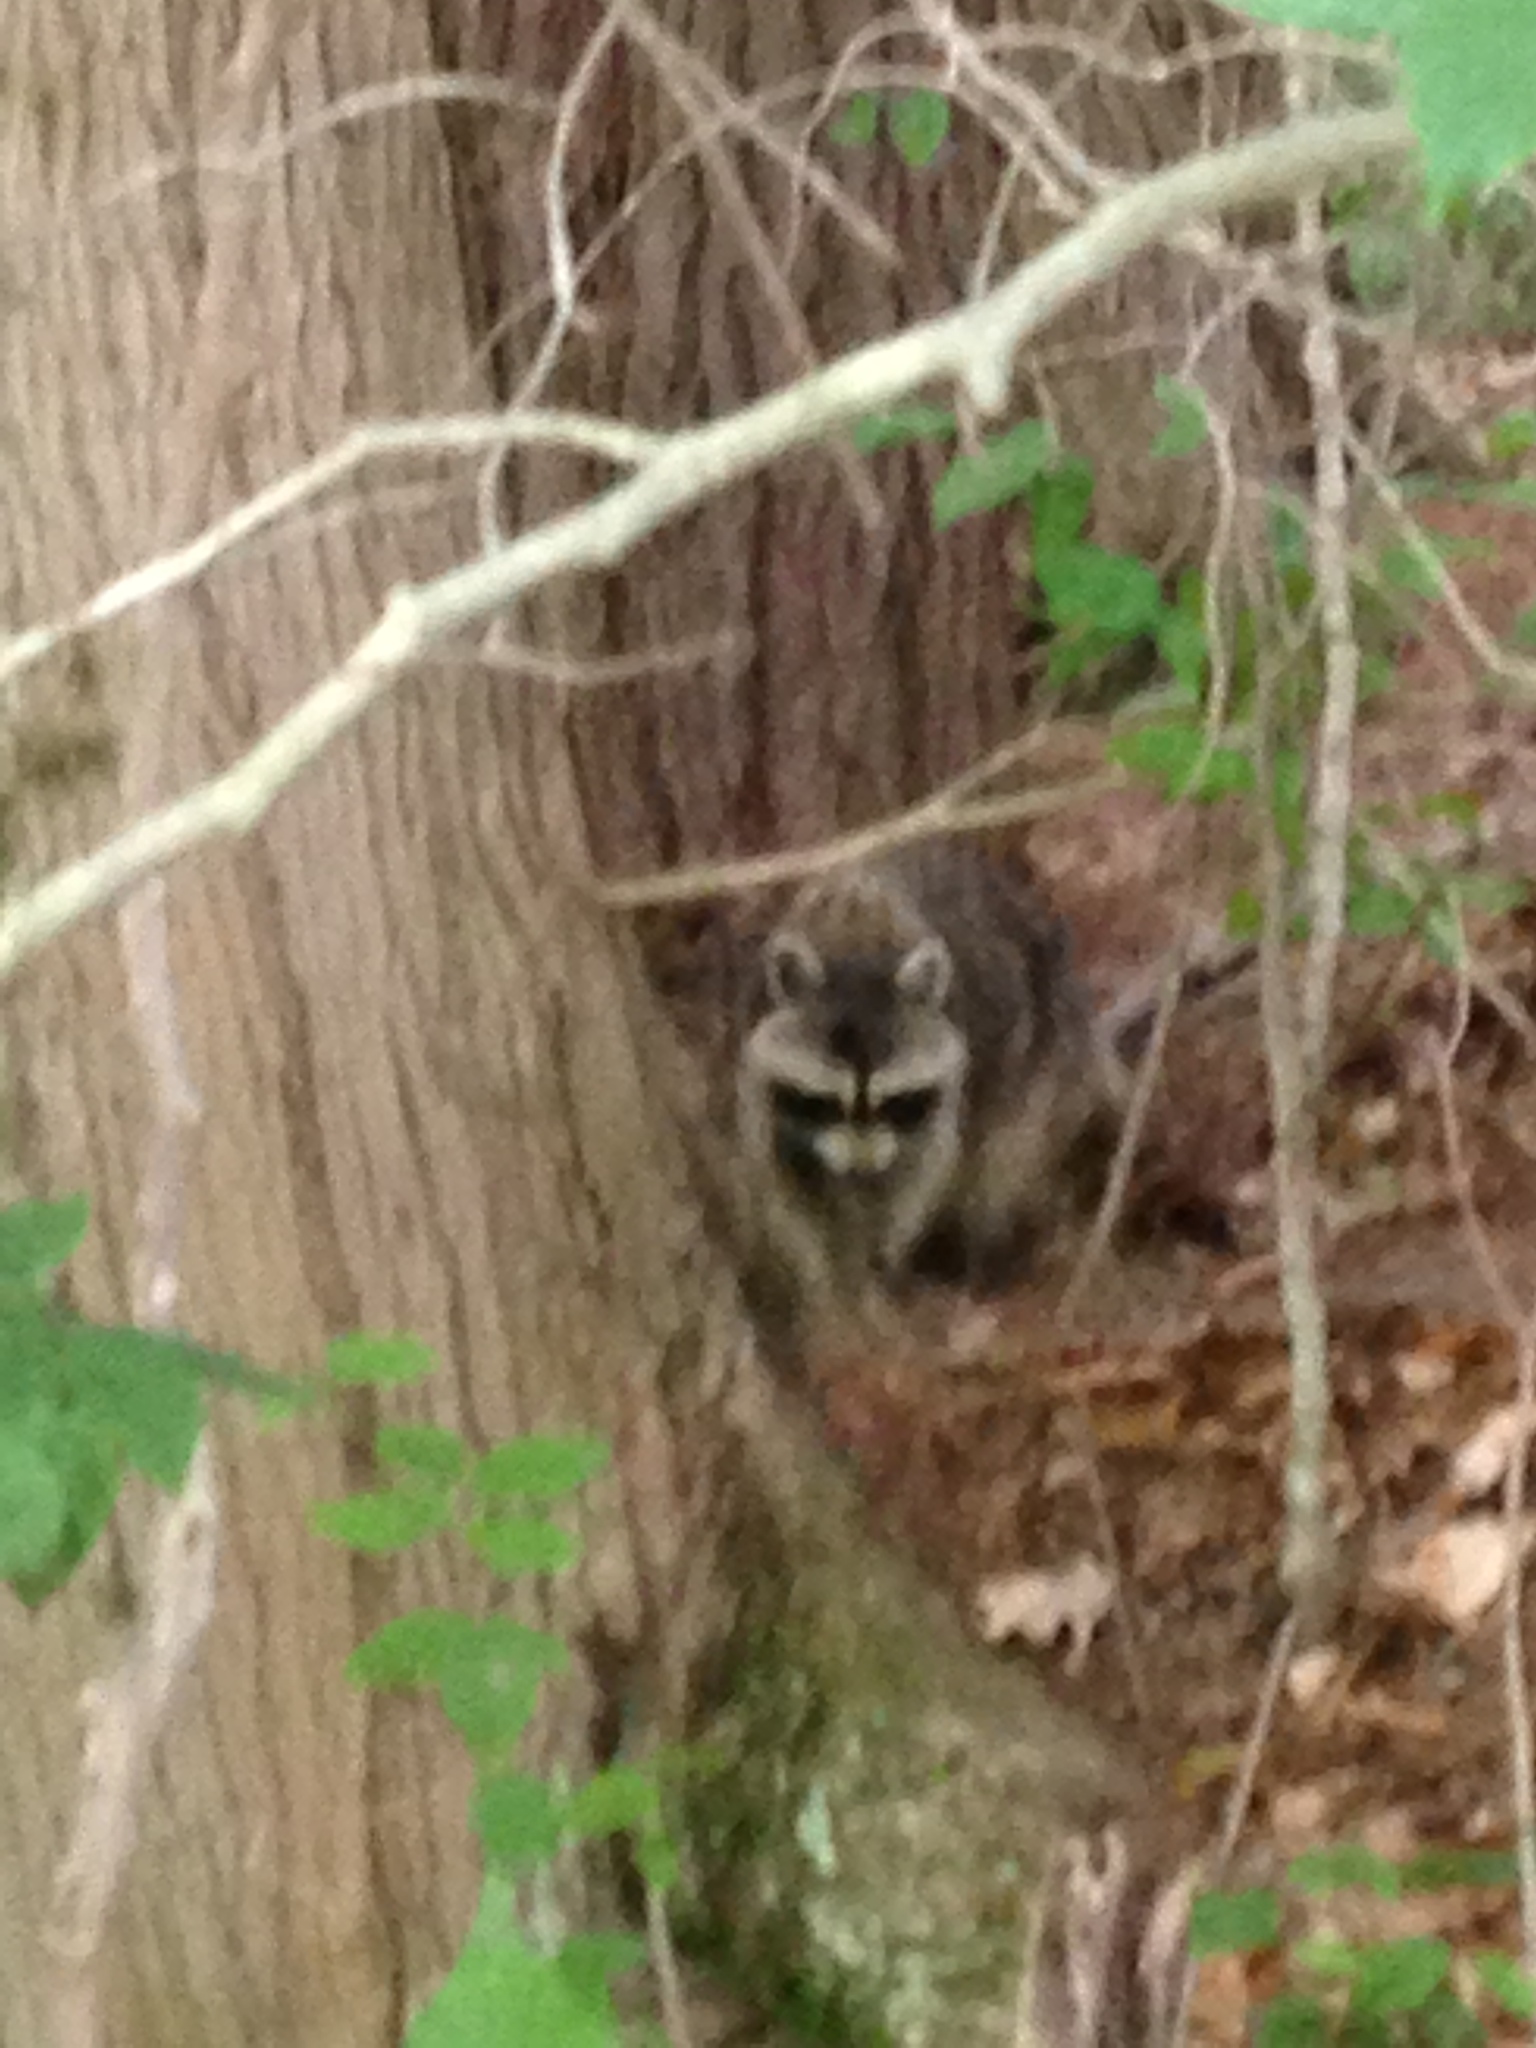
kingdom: Animalia
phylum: Chordata
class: Mammalia
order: Carnivora
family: Procyonidae
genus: Procyon
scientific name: Procyon lotor
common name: Raccoon
